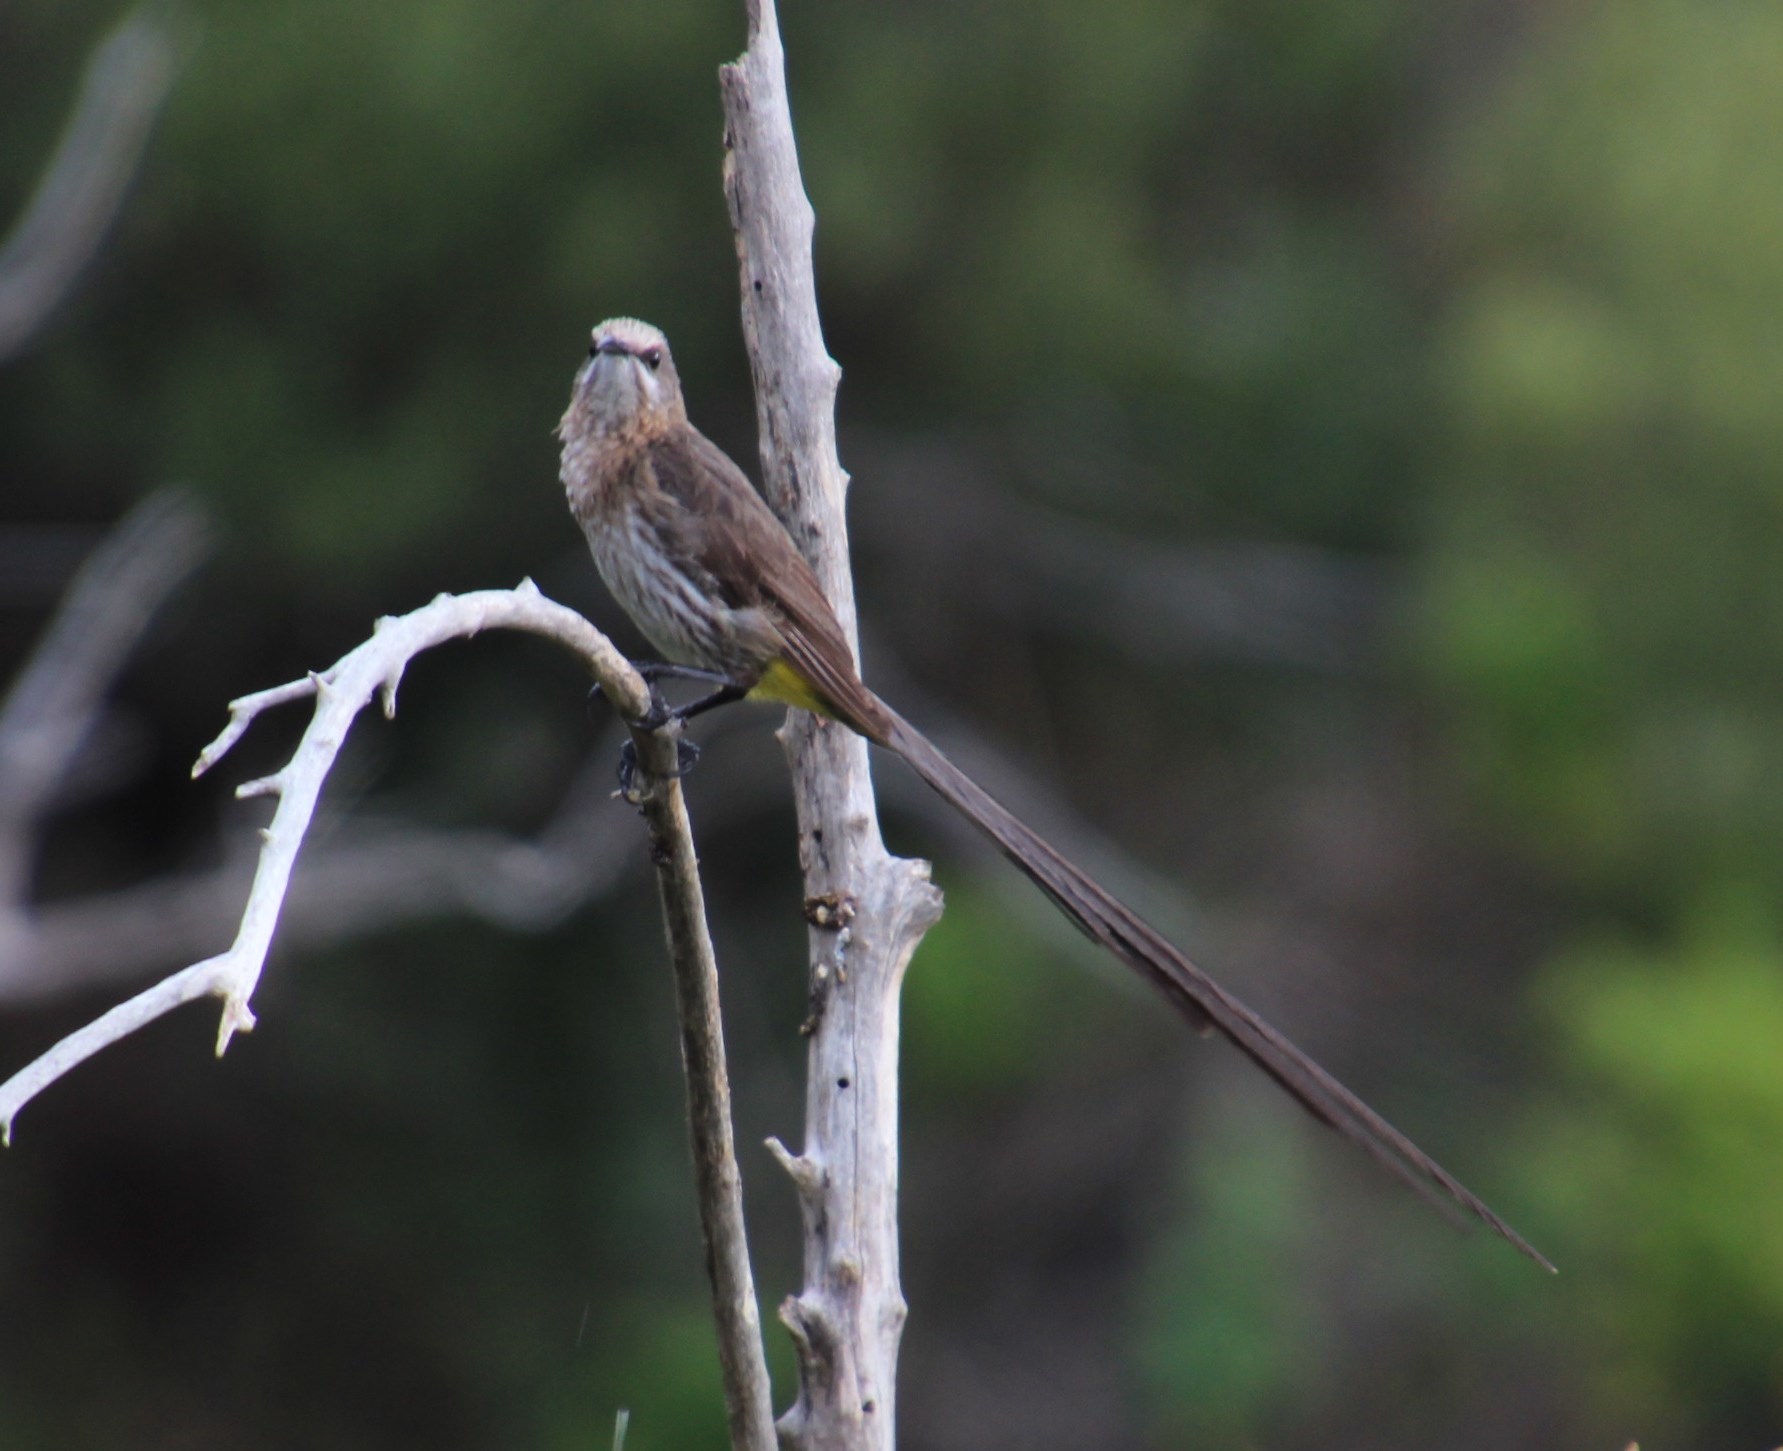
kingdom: Animalia
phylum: Chordata
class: Aves
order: Passeriformes
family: Promeropidae
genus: Promerops
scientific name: Promerops cafer
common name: Cape sugarbird
